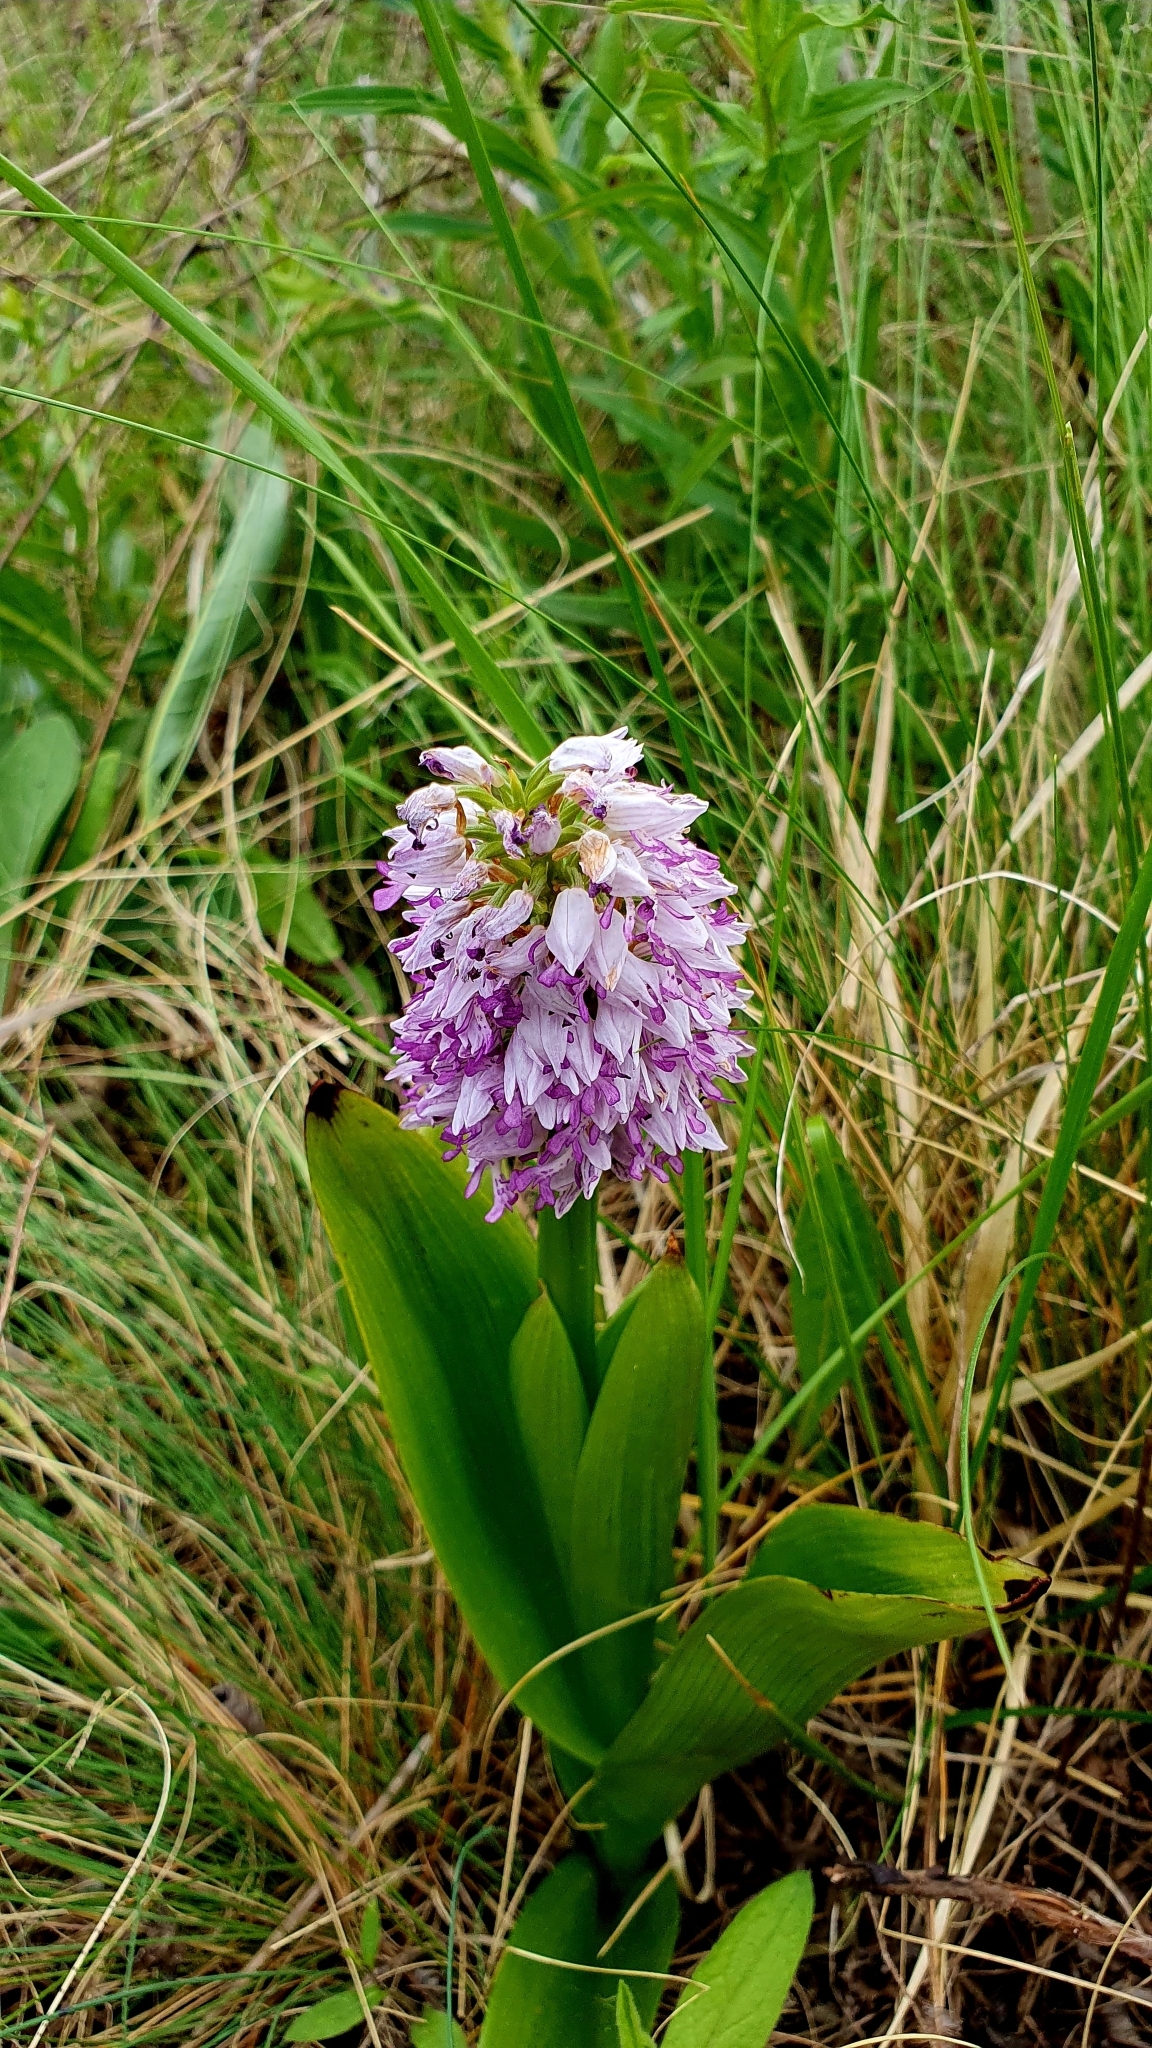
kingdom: Plantae
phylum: Tracheophyta
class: Liliopsida
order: Asparagales
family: Orchidaceae
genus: Orchis
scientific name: Orchis militaris
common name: Military orchid
